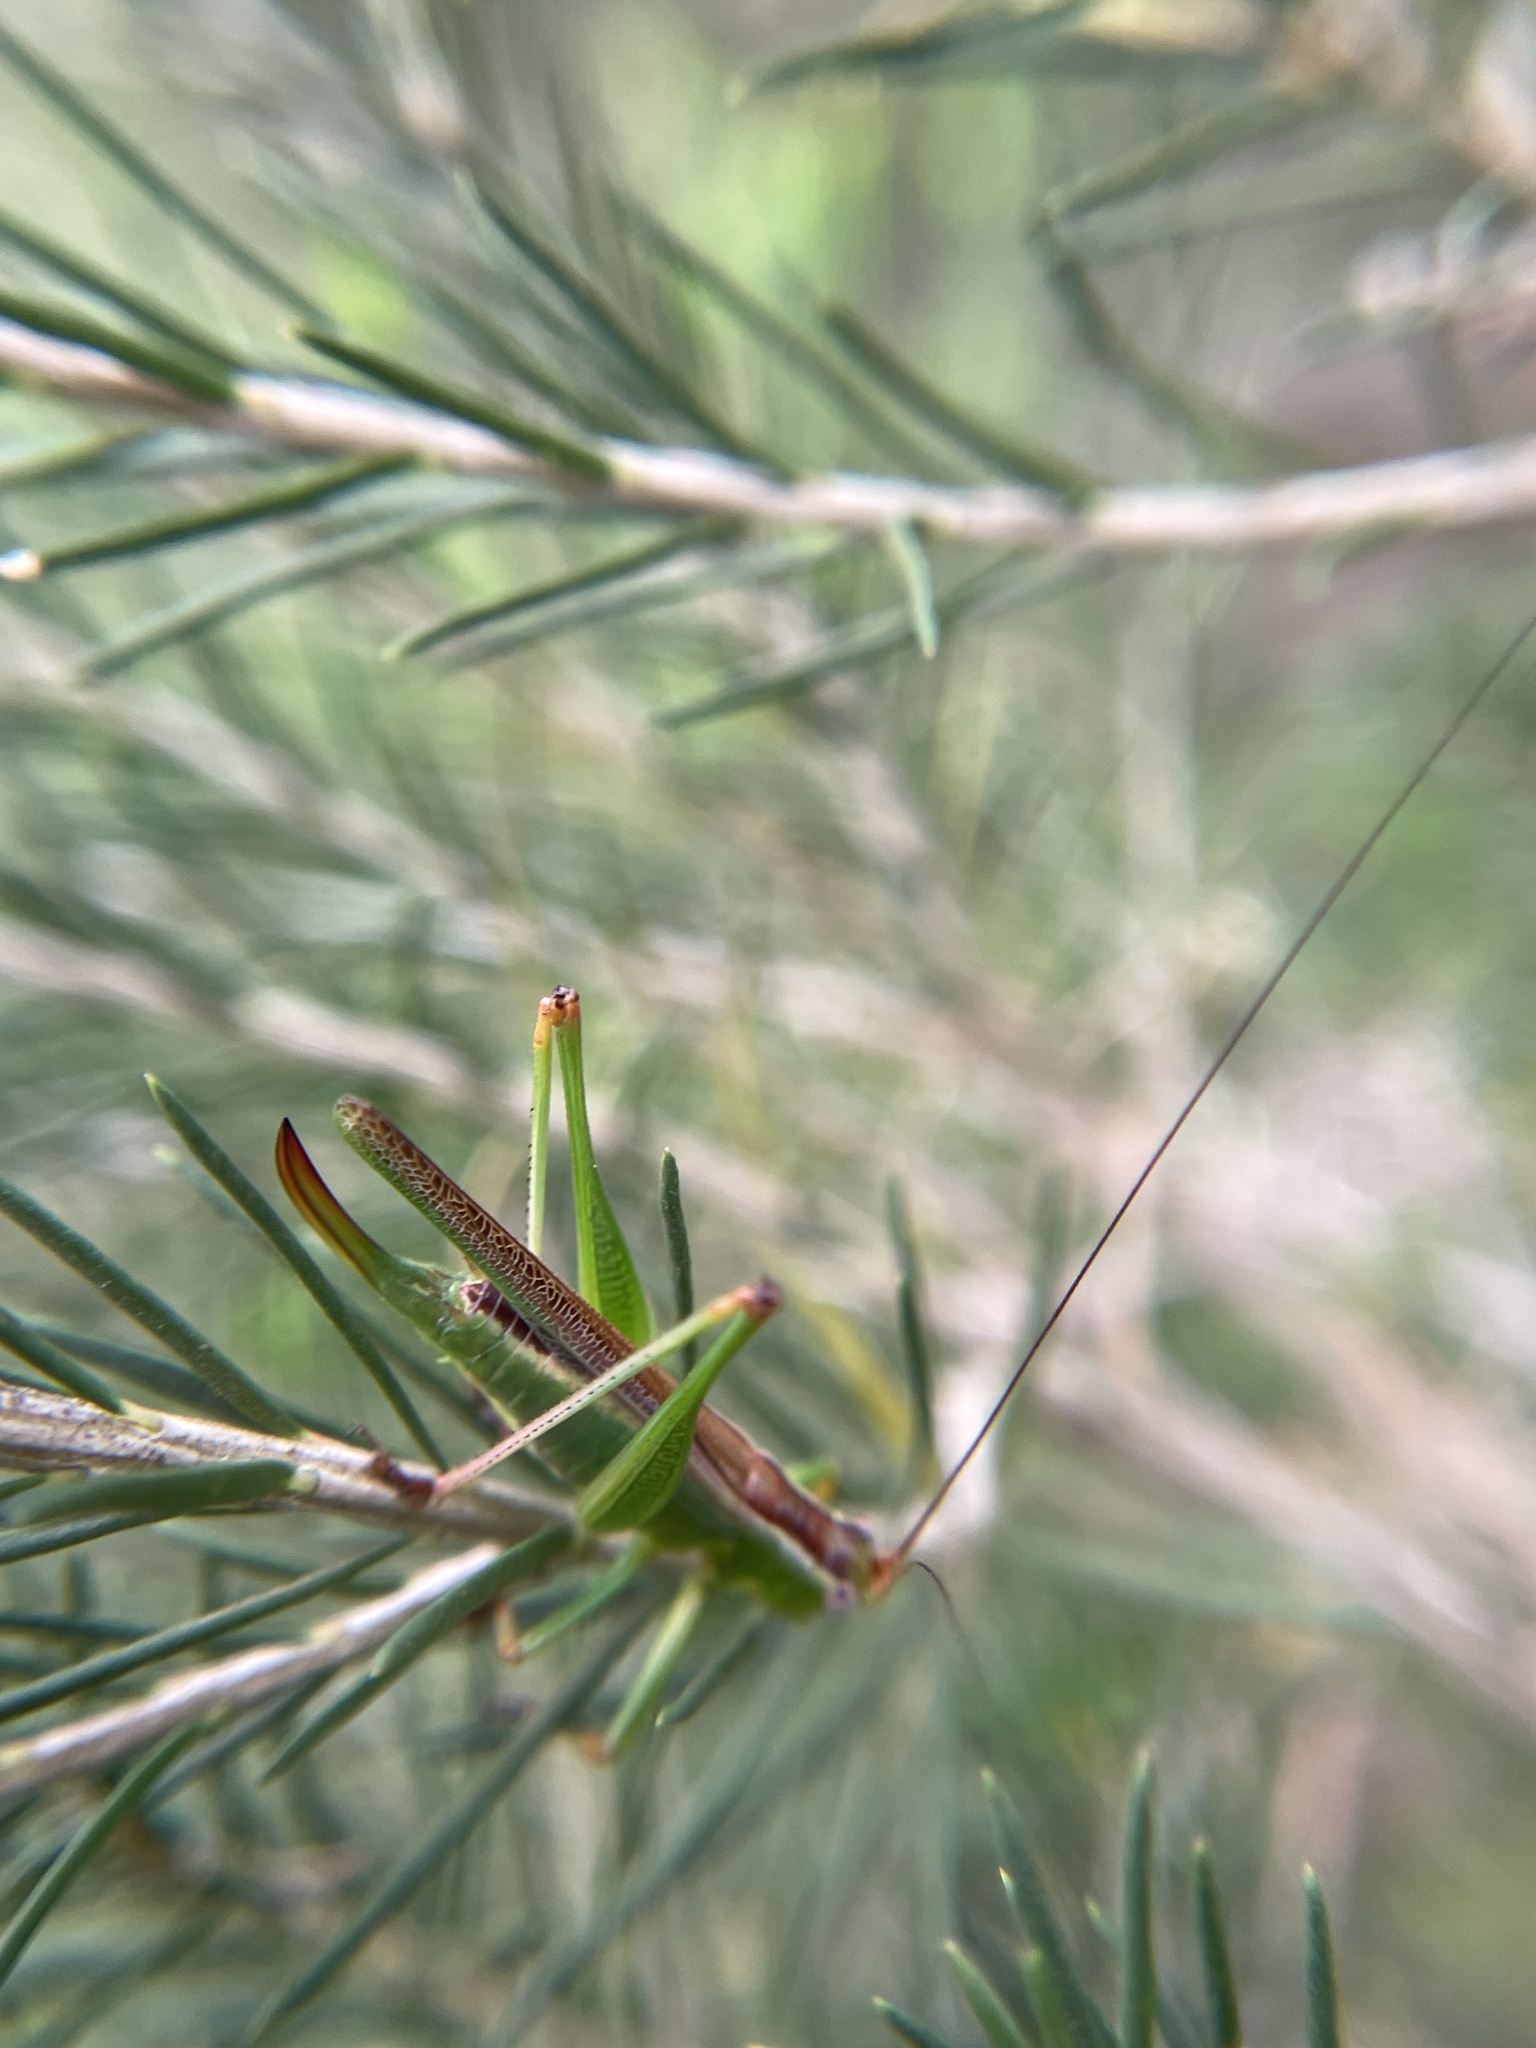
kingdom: Animalia
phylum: Arthropoda
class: Insecta
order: Orthoptera
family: Tettigoniidae
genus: Conocephalomima
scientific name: Conocephalomima barameda
